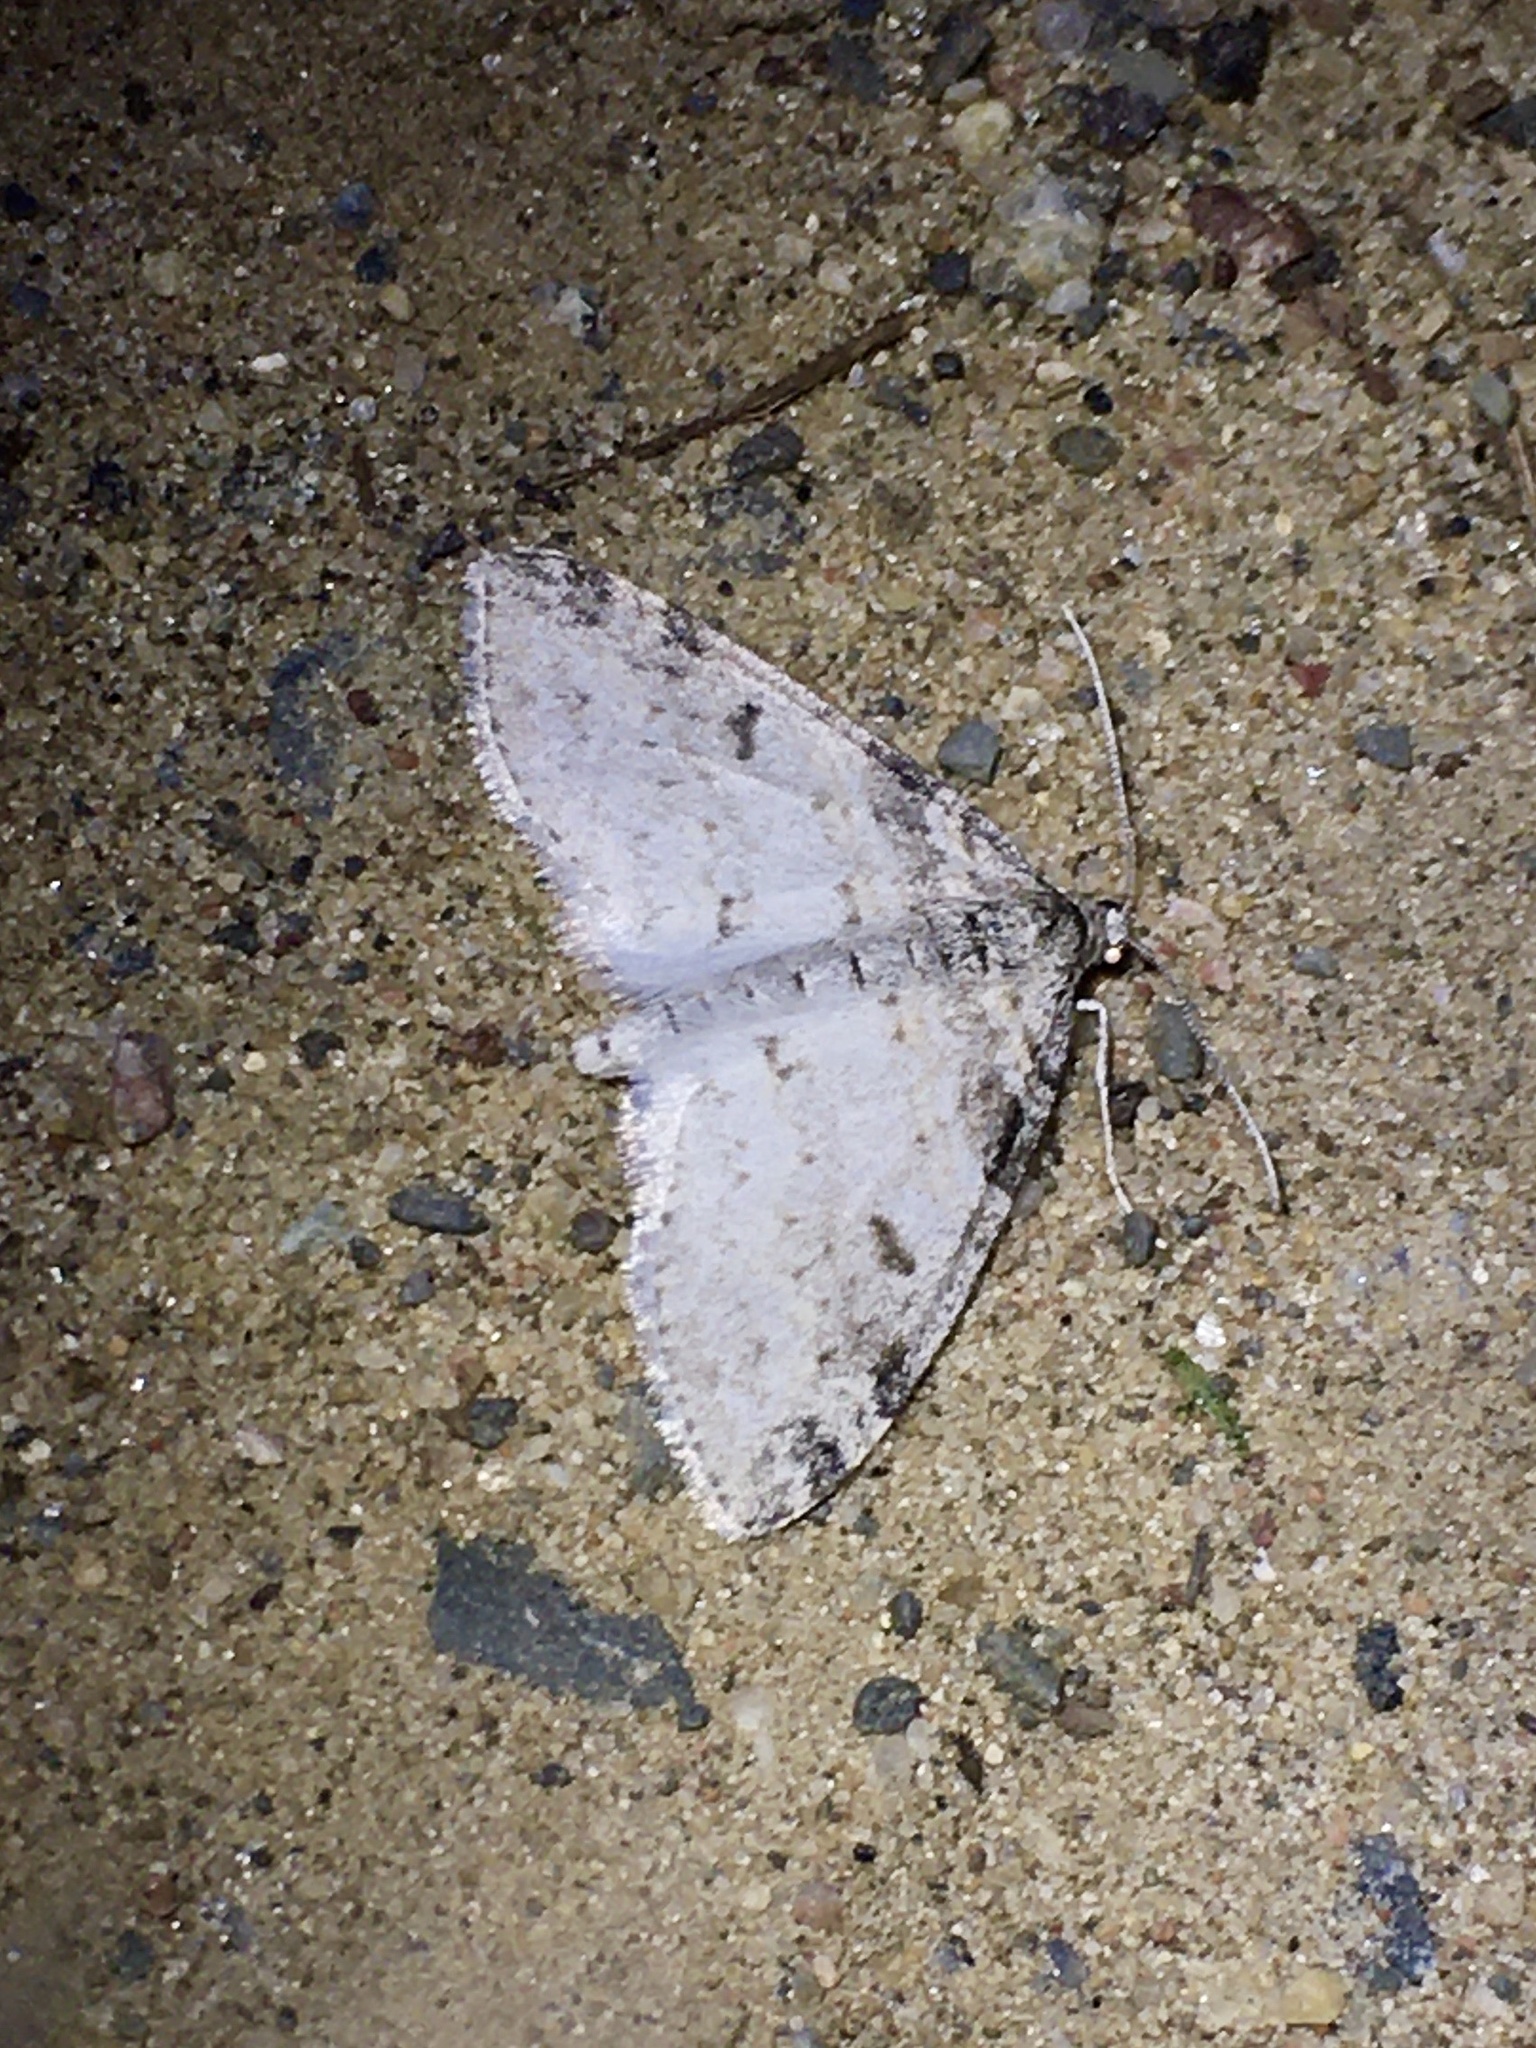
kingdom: Animalia
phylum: Arthropoda
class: Insecta
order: Lepidoptera
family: Geometridae
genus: Lobophora
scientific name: Lobophora nivigerata
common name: Powdered bigwing
